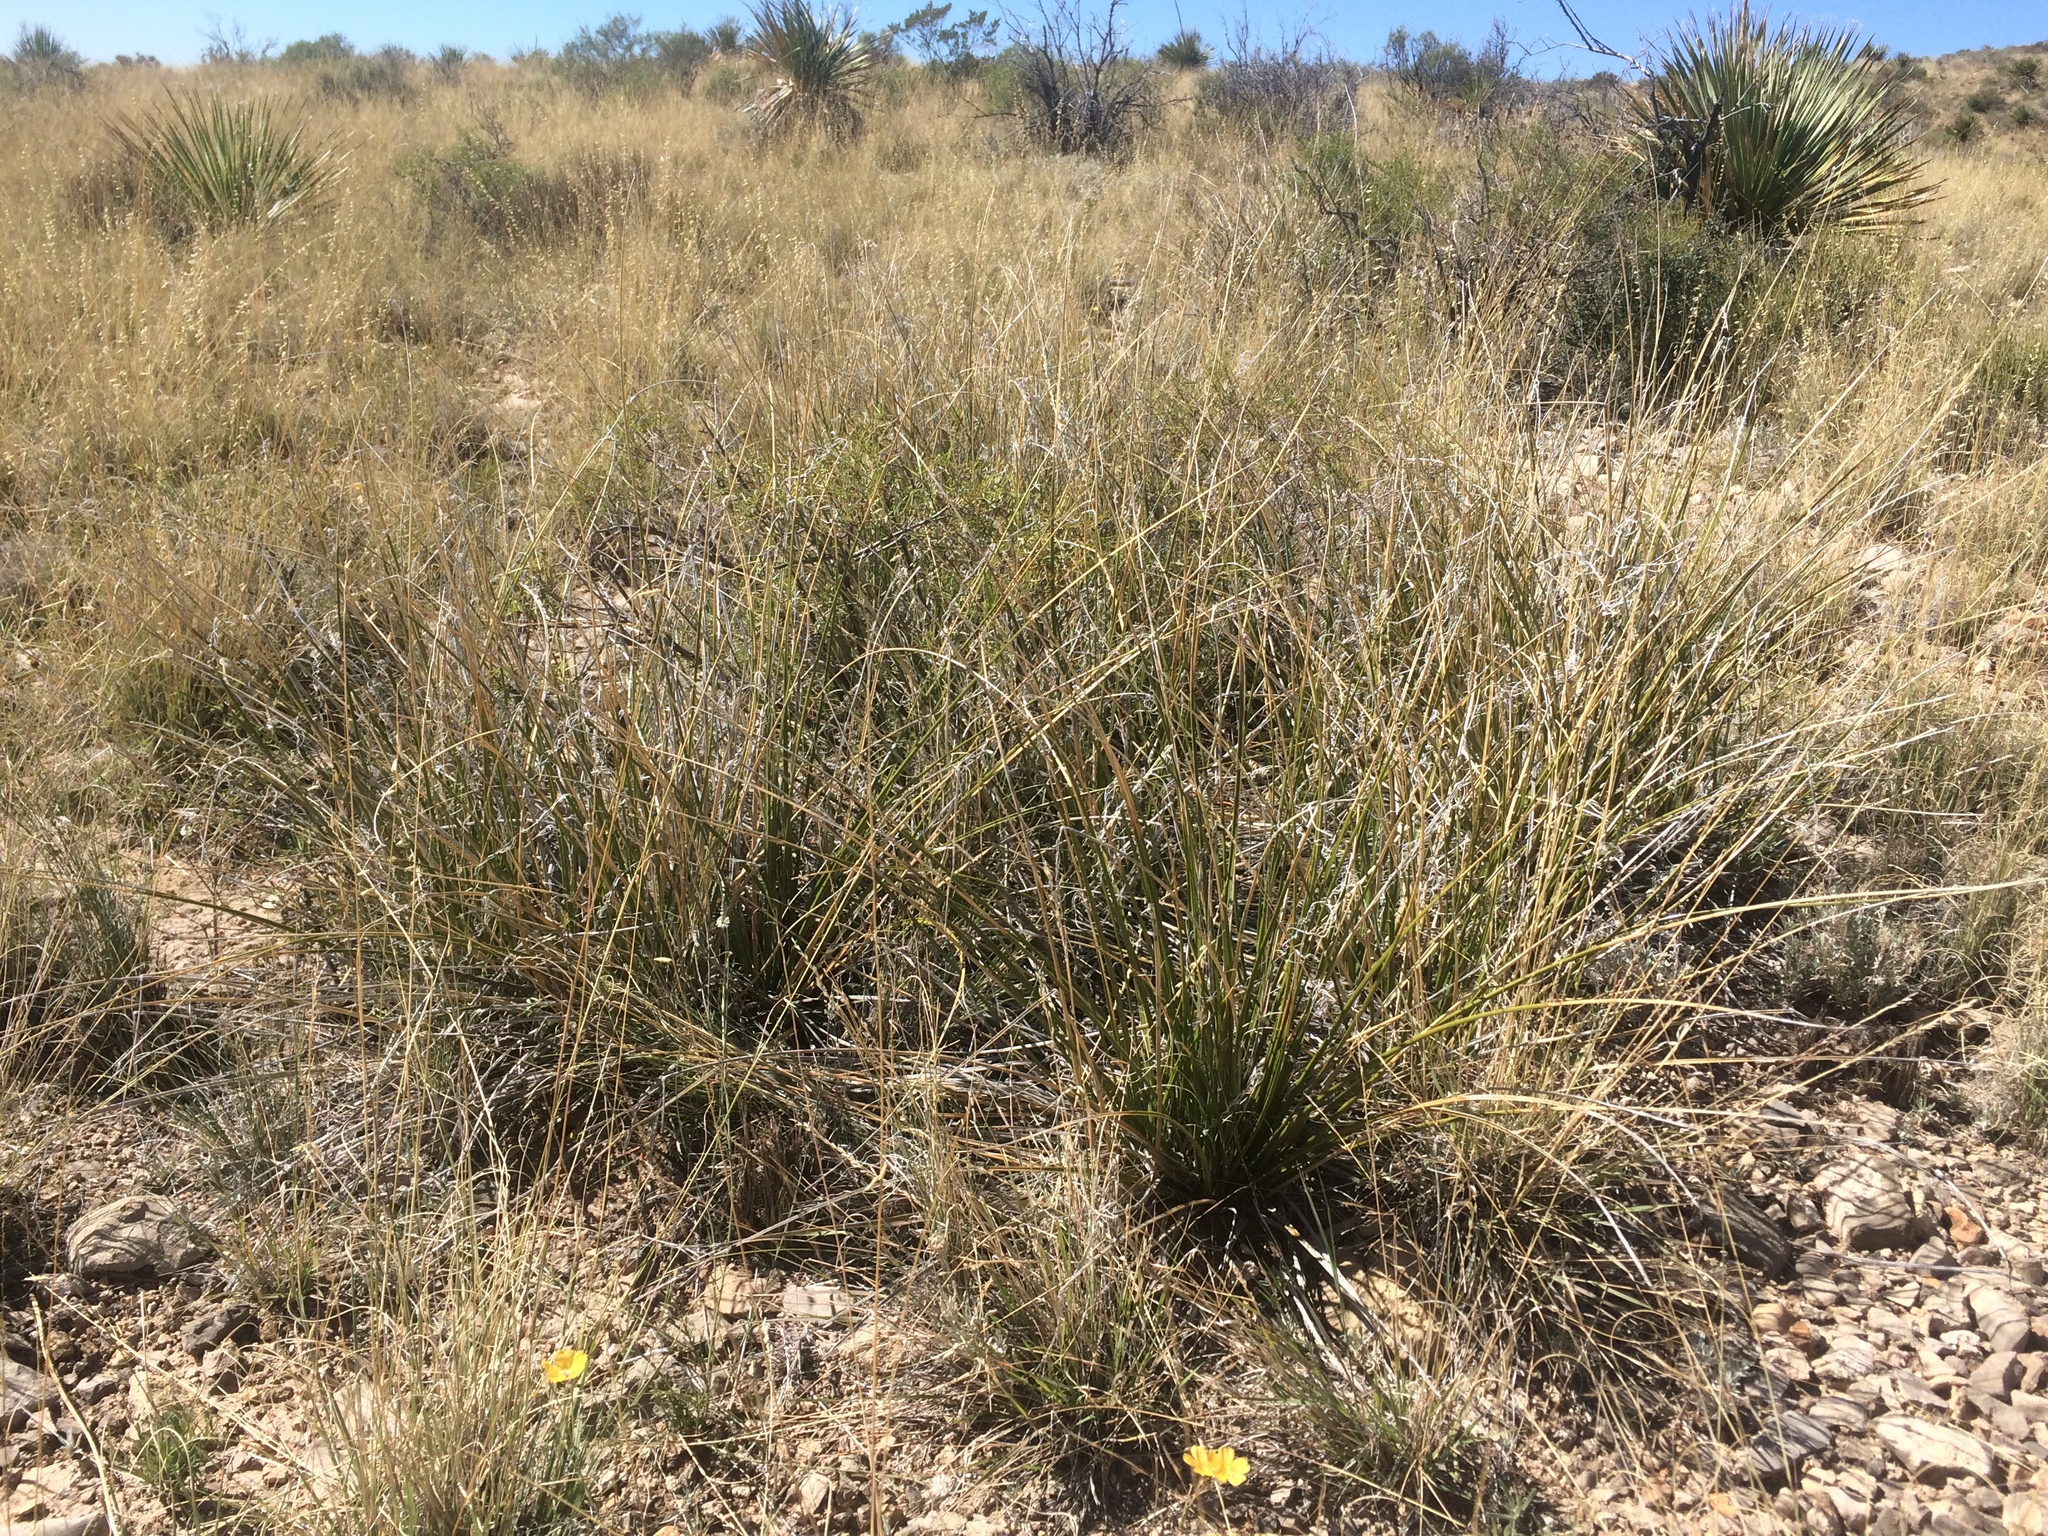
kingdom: Plantae
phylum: Tracheophyta
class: Liliopsida
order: Asparagales
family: Asparagaceae
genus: Nolina
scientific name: Nolina texana
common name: Texas sacahuiste
